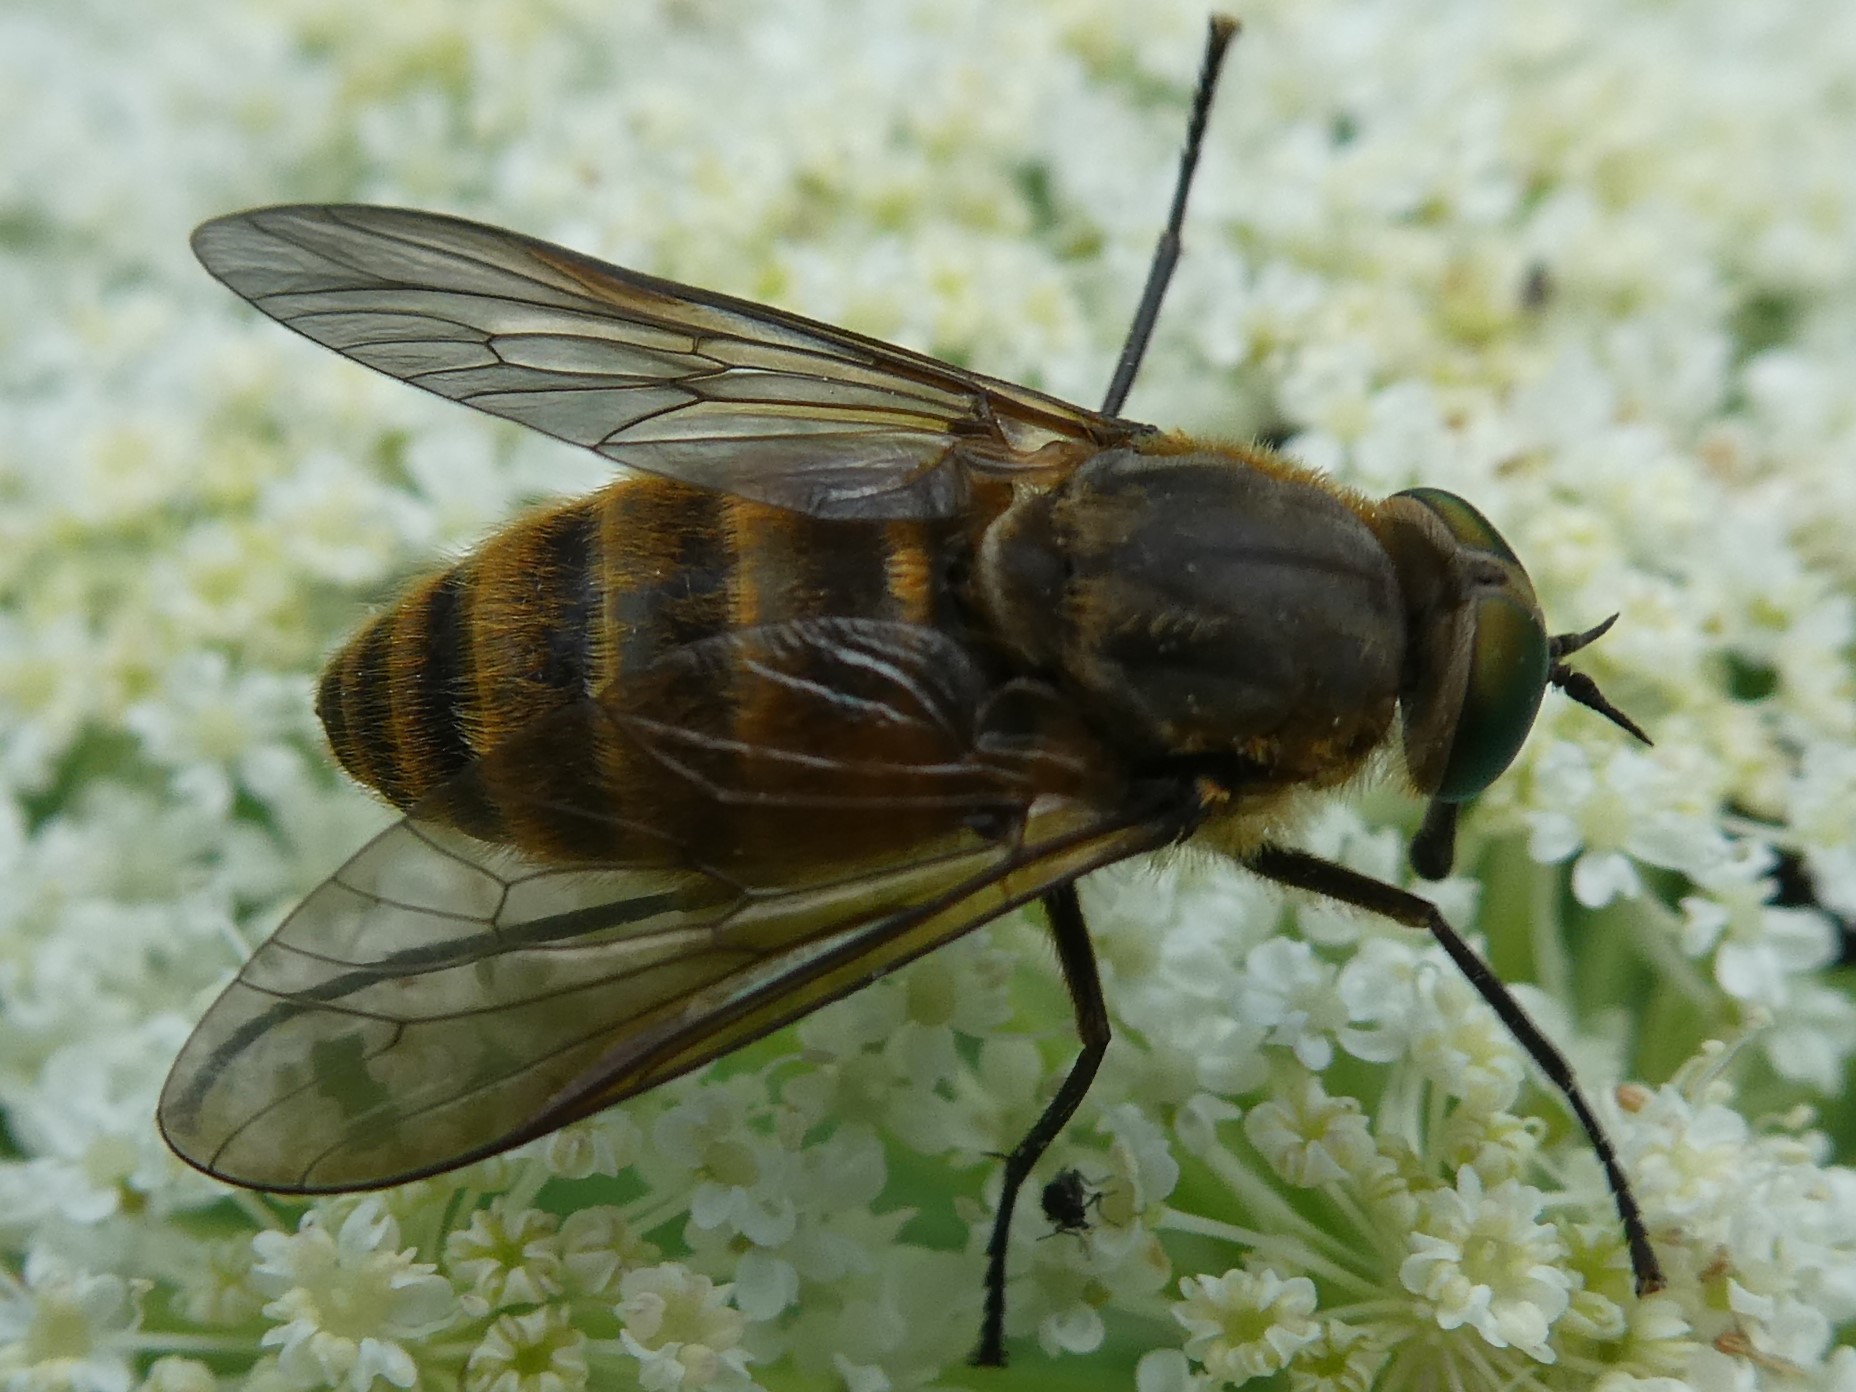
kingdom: Animalia
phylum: Arthropoda
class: Insecta
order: Diptera
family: Tabanidae
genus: Stonemyia
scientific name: Stonemyia tranquilla
